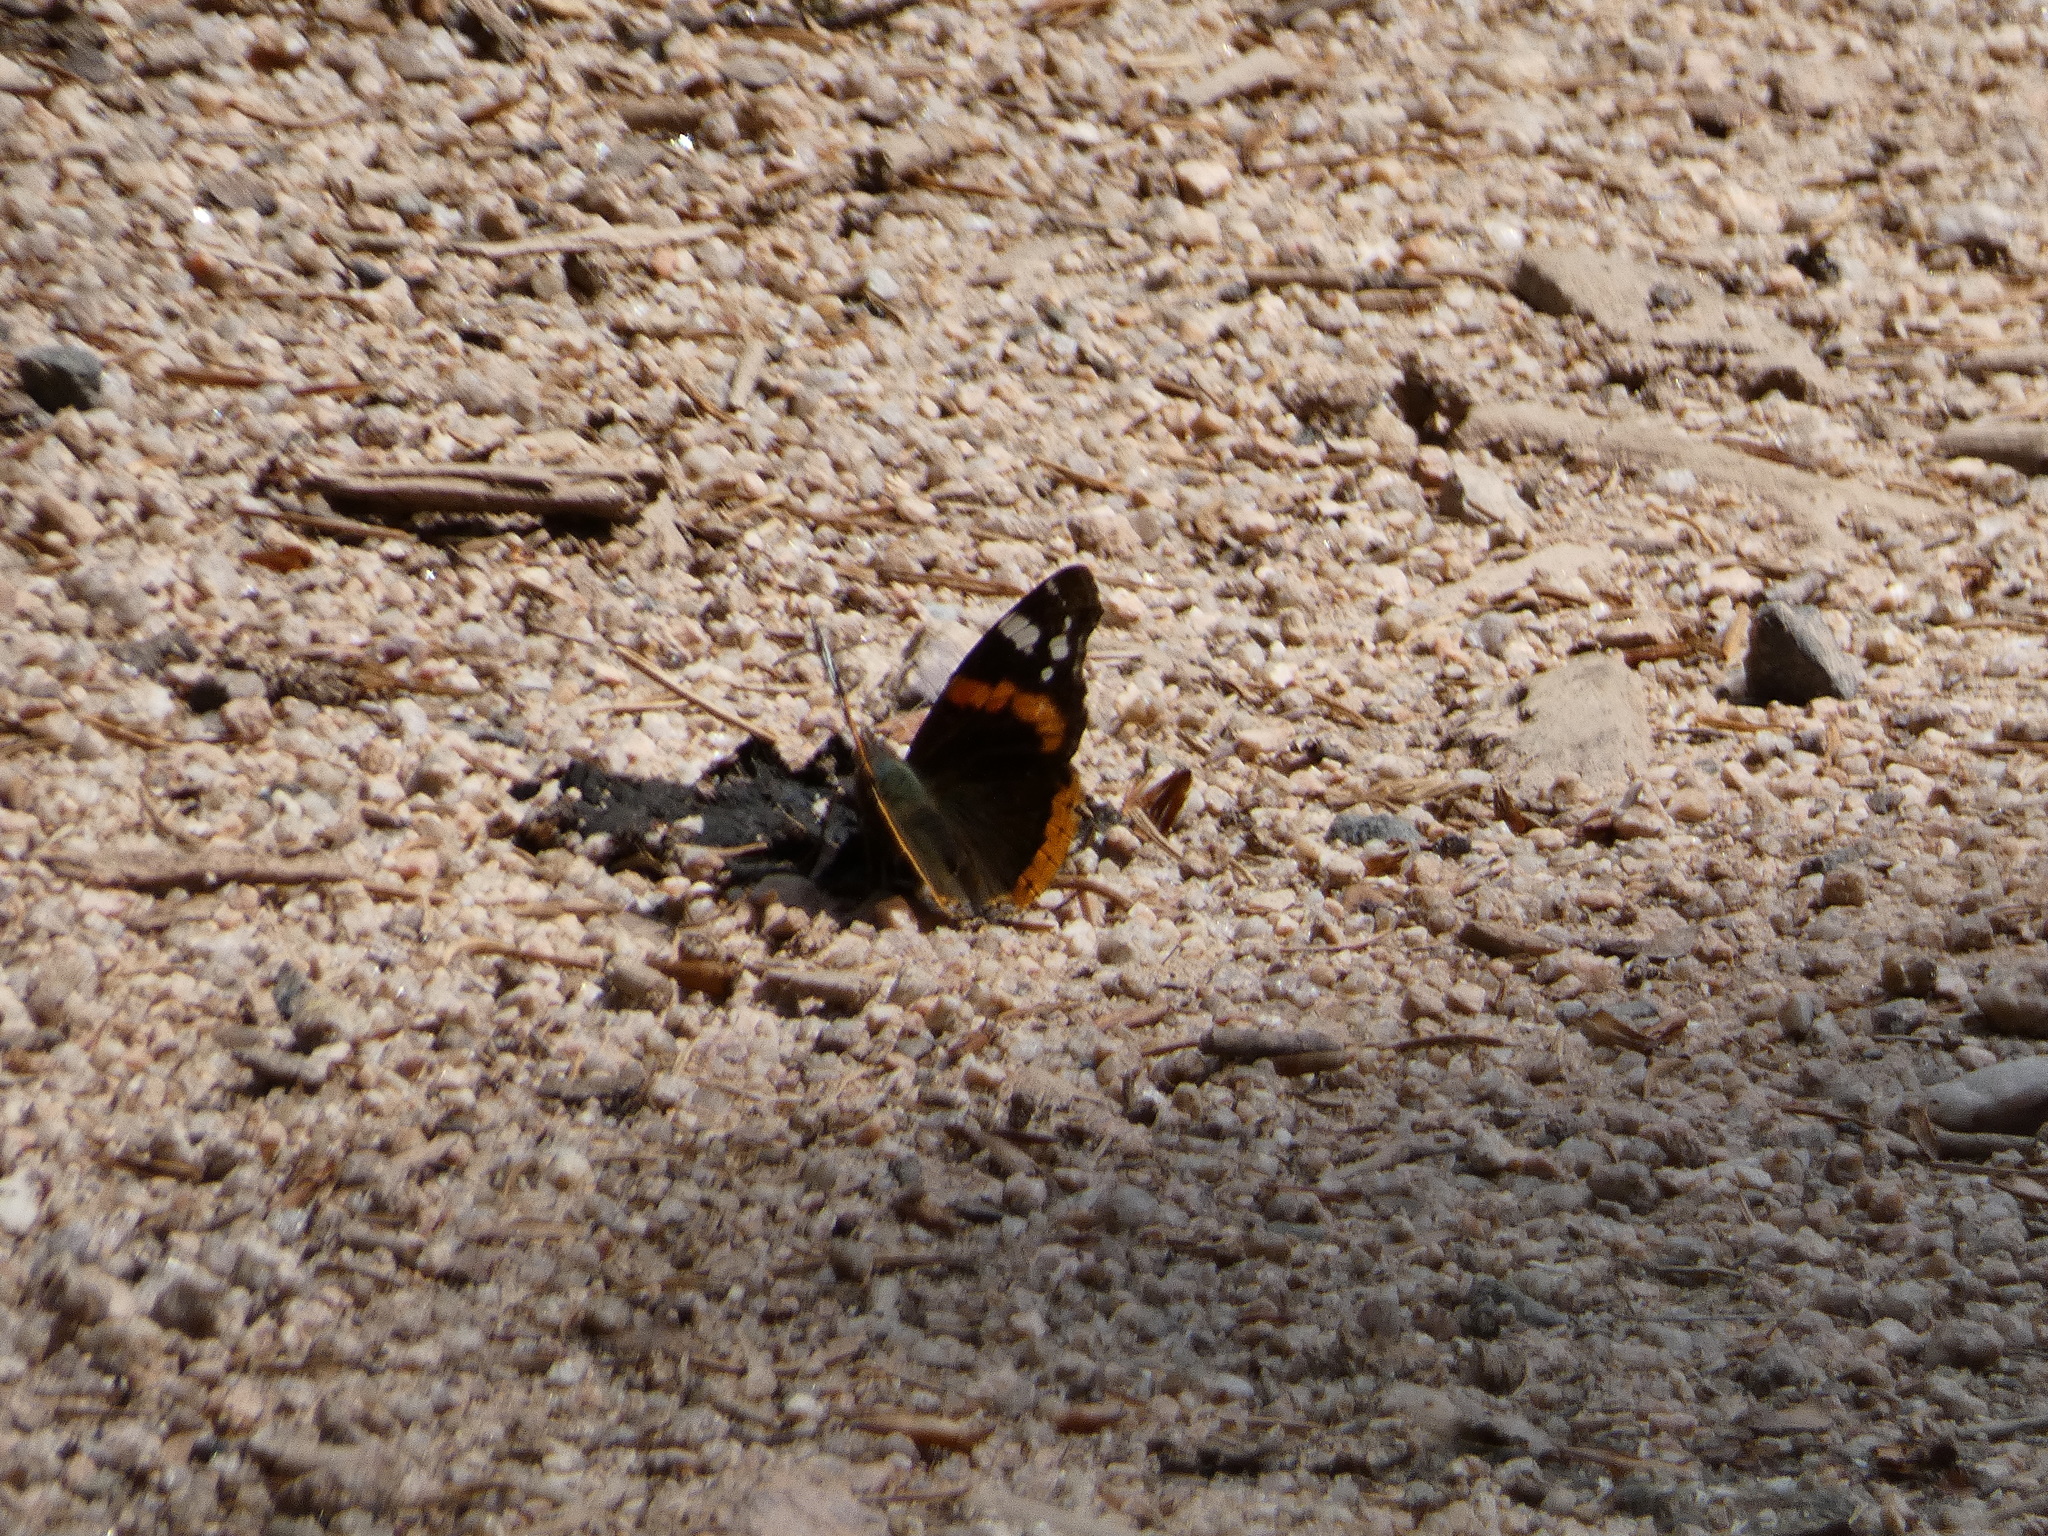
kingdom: Animalia
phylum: Arthropoda
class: Insecta
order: Lepidoptera
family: Nymphalidae
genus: Vanessa
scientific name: Vanessa atalanta
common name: Red admiral
